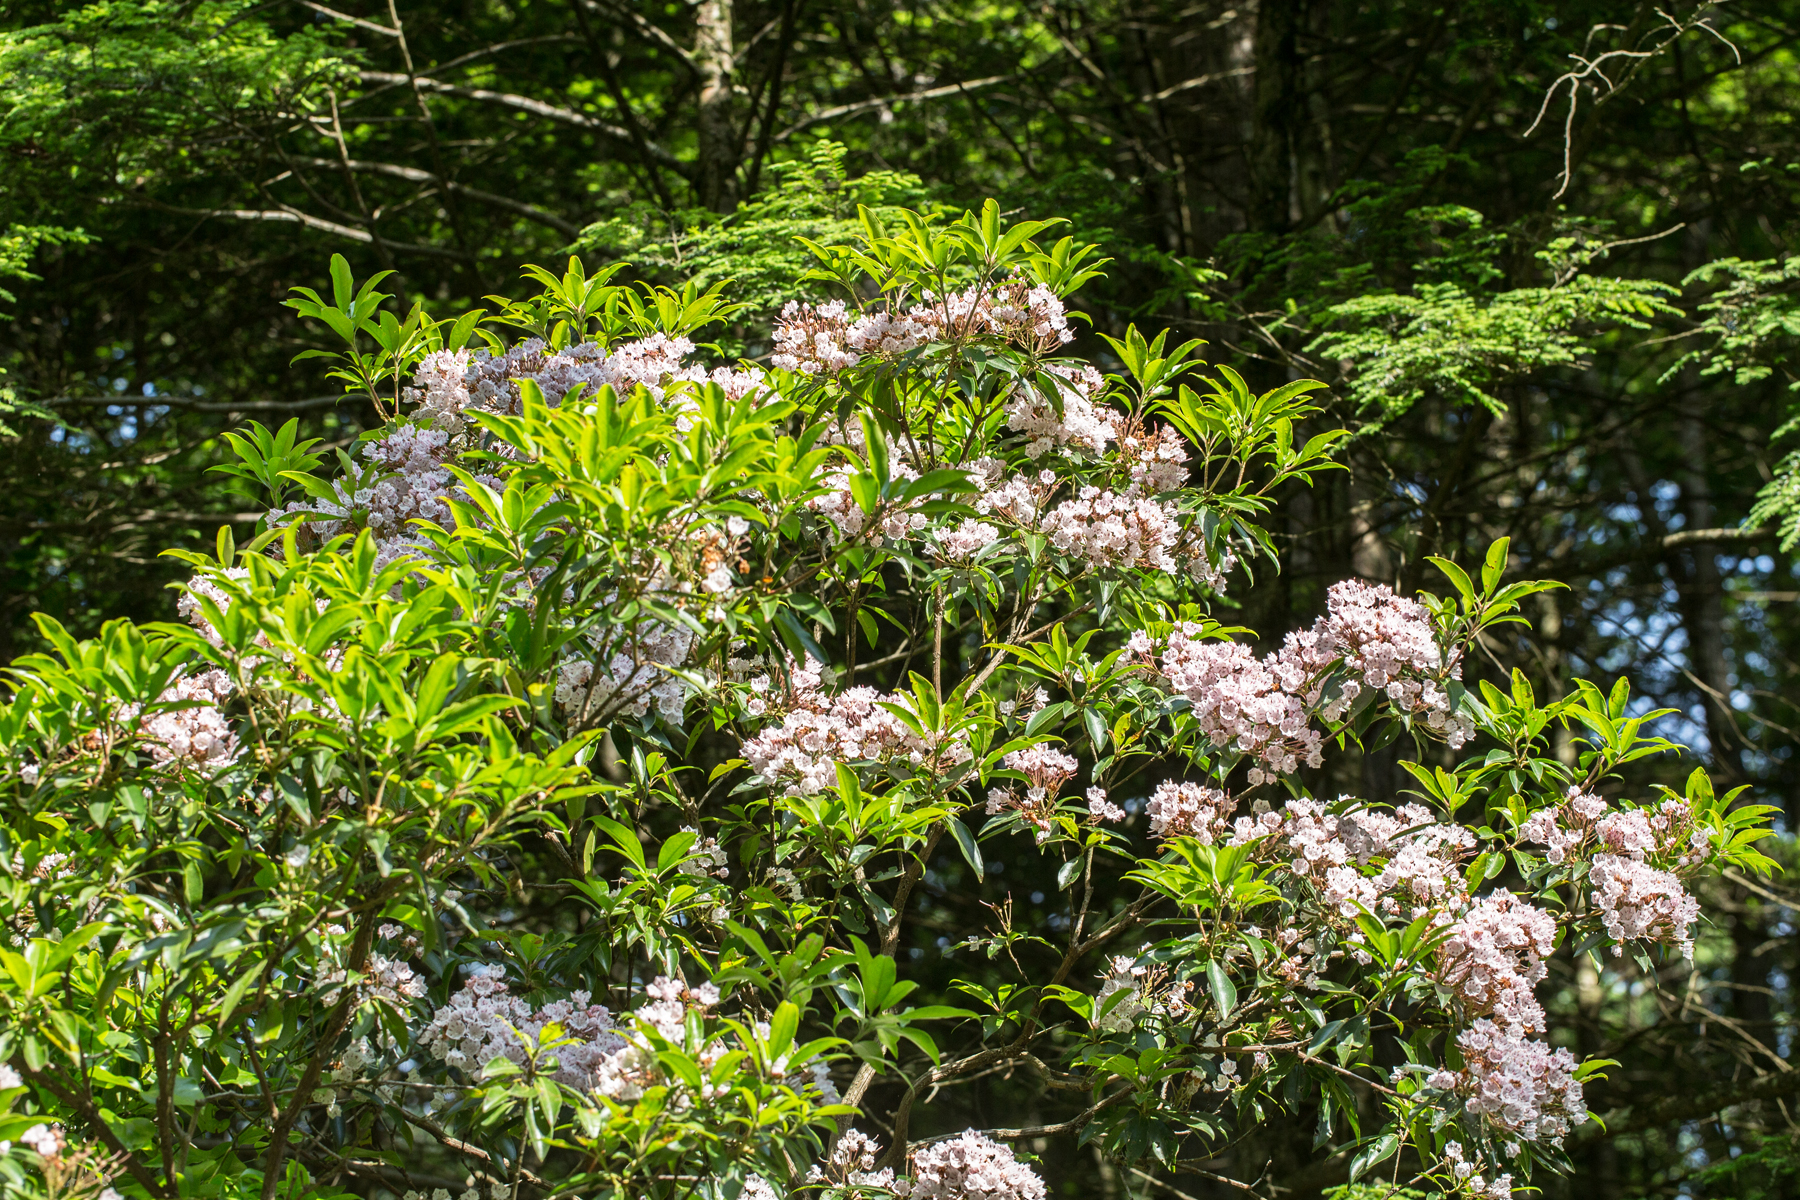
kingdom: Plantae
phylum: Tracheophyta
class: Magnoliopsida
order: Ericales
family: Ericaceae
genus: Kalmia
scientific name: Kalmia latifolia
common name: Mountain-laurel
